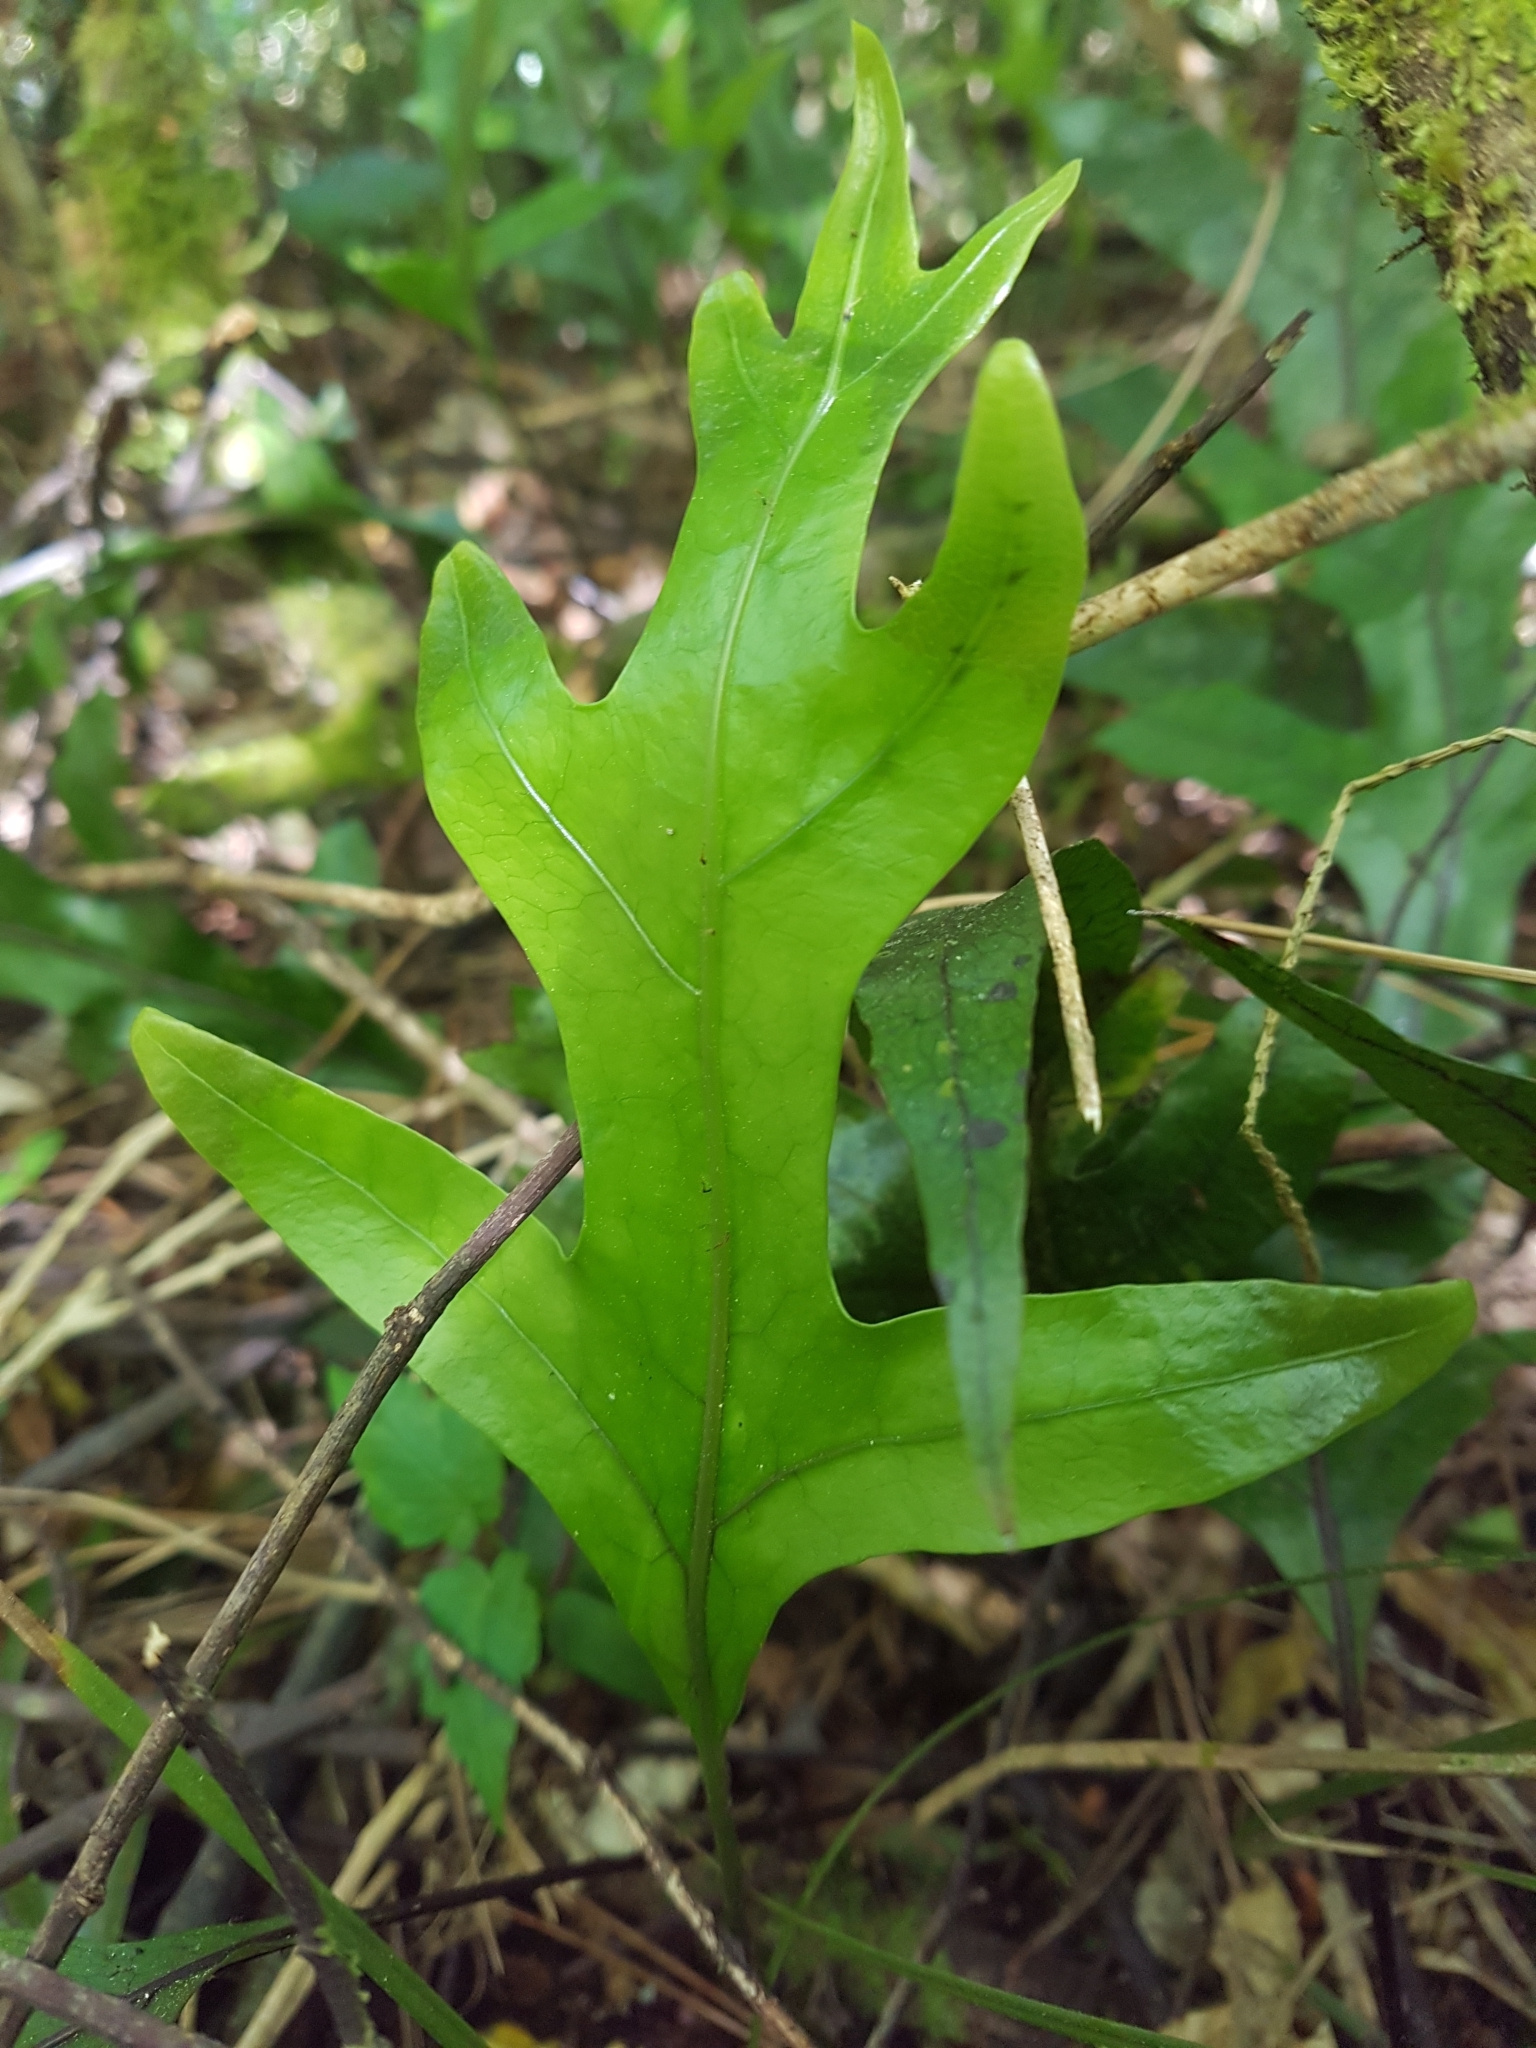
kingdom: Plantae
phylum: Tracheophyta
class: Polypodiopsida
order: Polypodiales
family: Polypodiaceae
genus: Lecanopteris
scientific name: Lecanopteris pustulata
